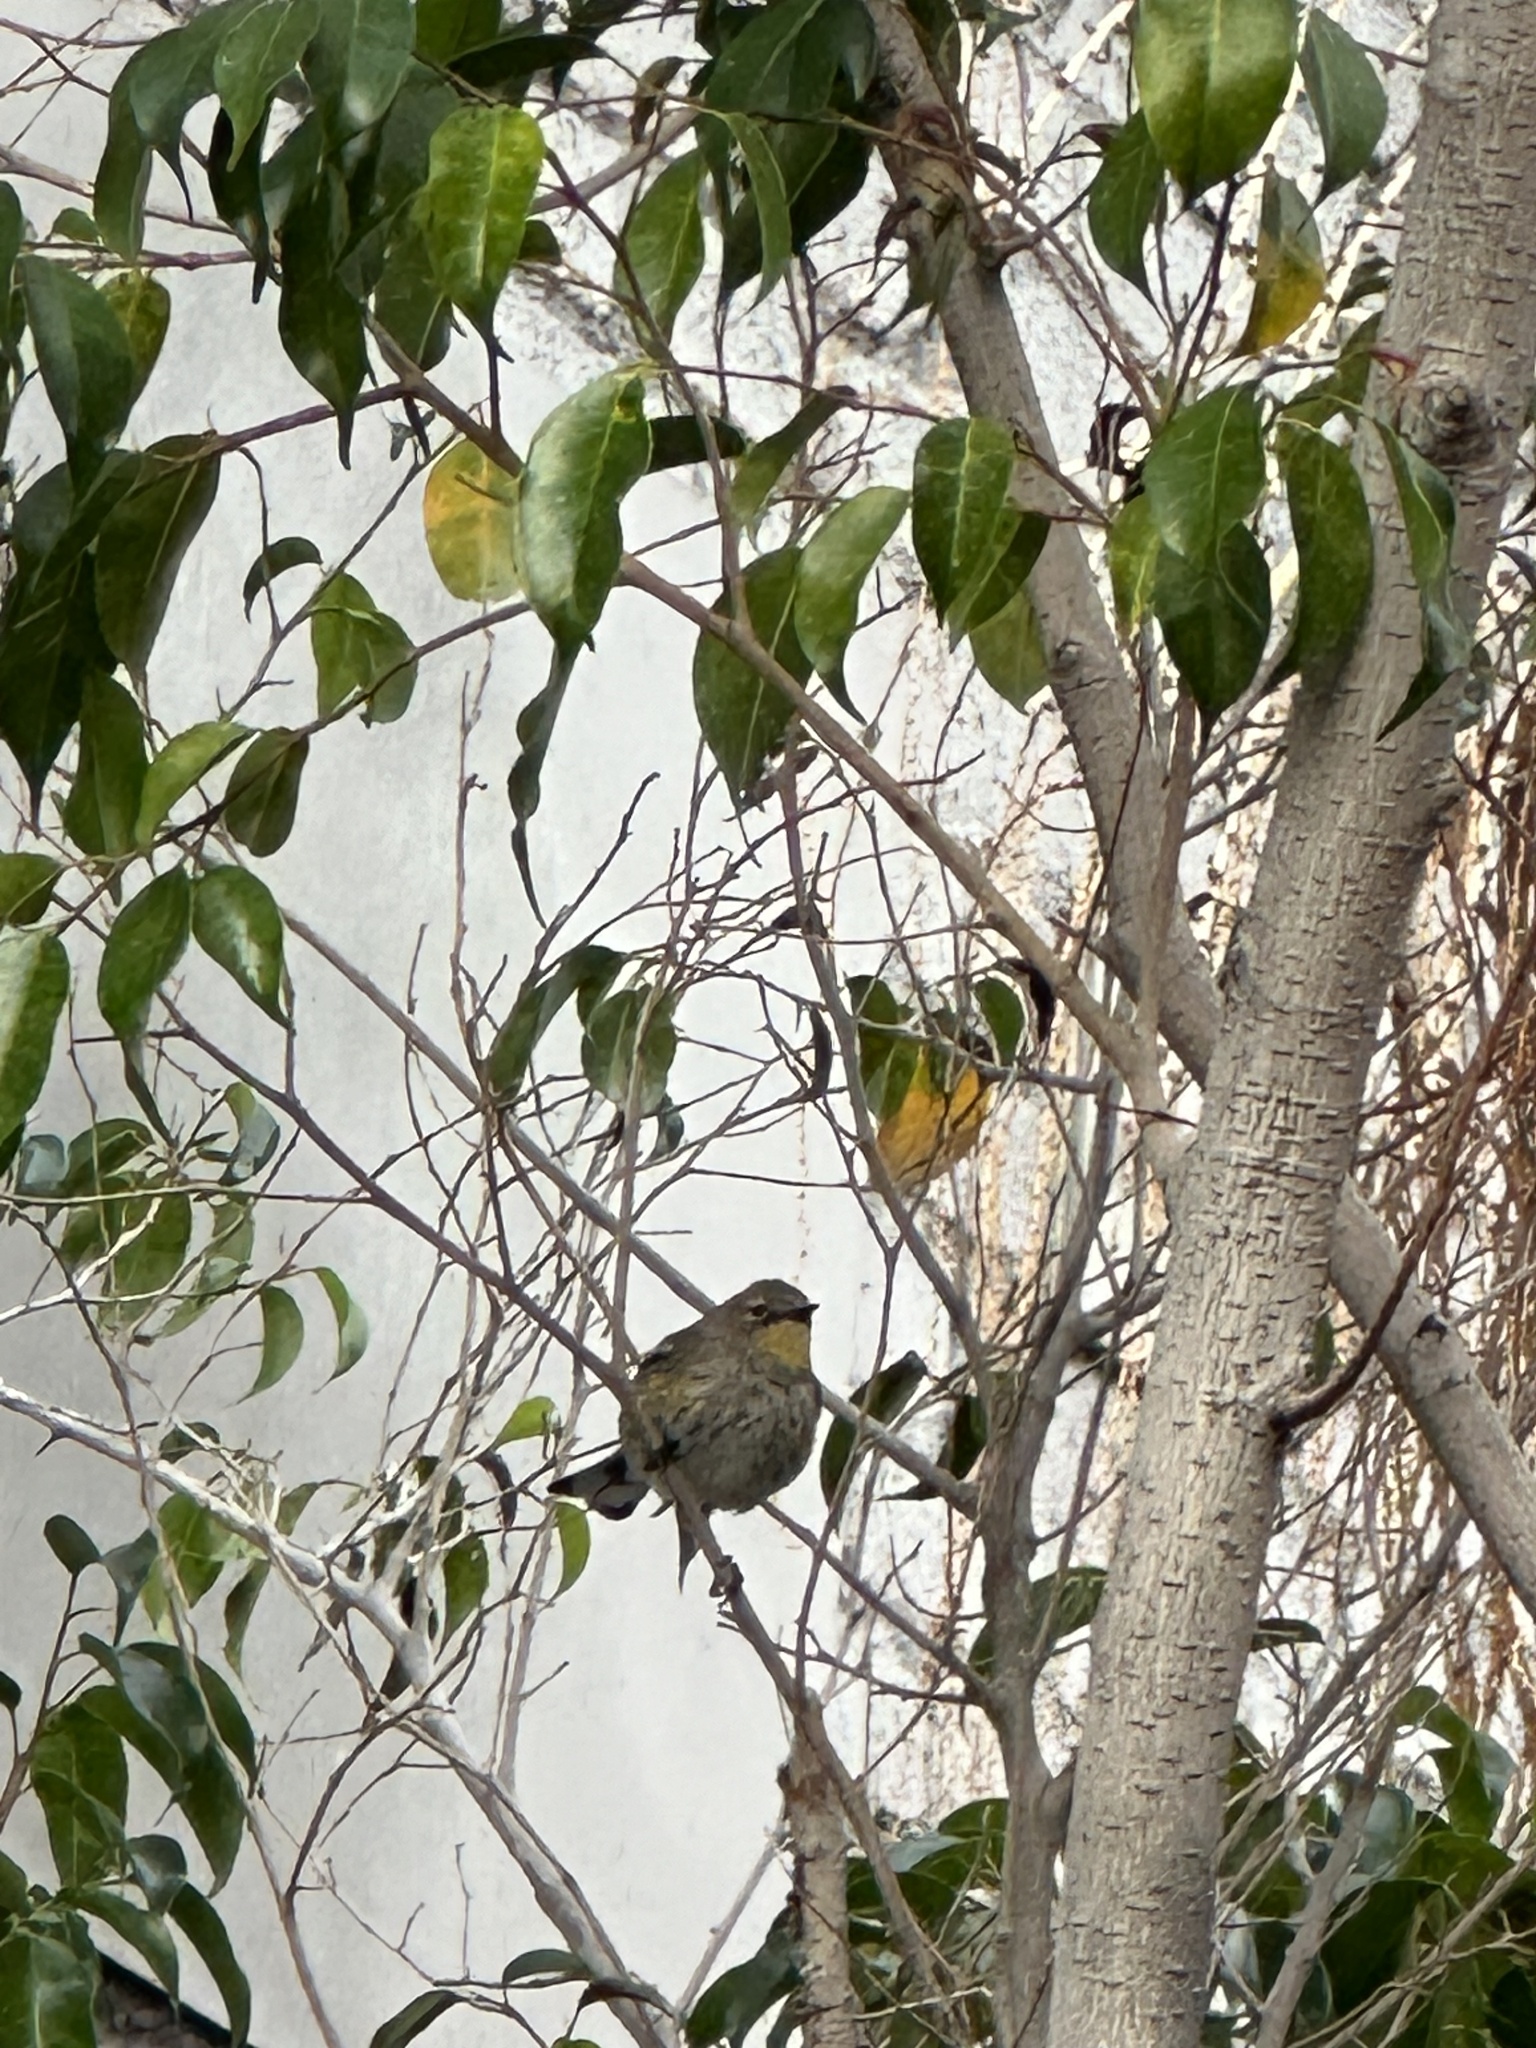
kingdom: Animalia
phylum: Chordata
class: Aves
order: Passeriformes
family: Parulidae
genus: Setophaga
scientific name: Setophaga coronata
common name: Myrtle warbler
